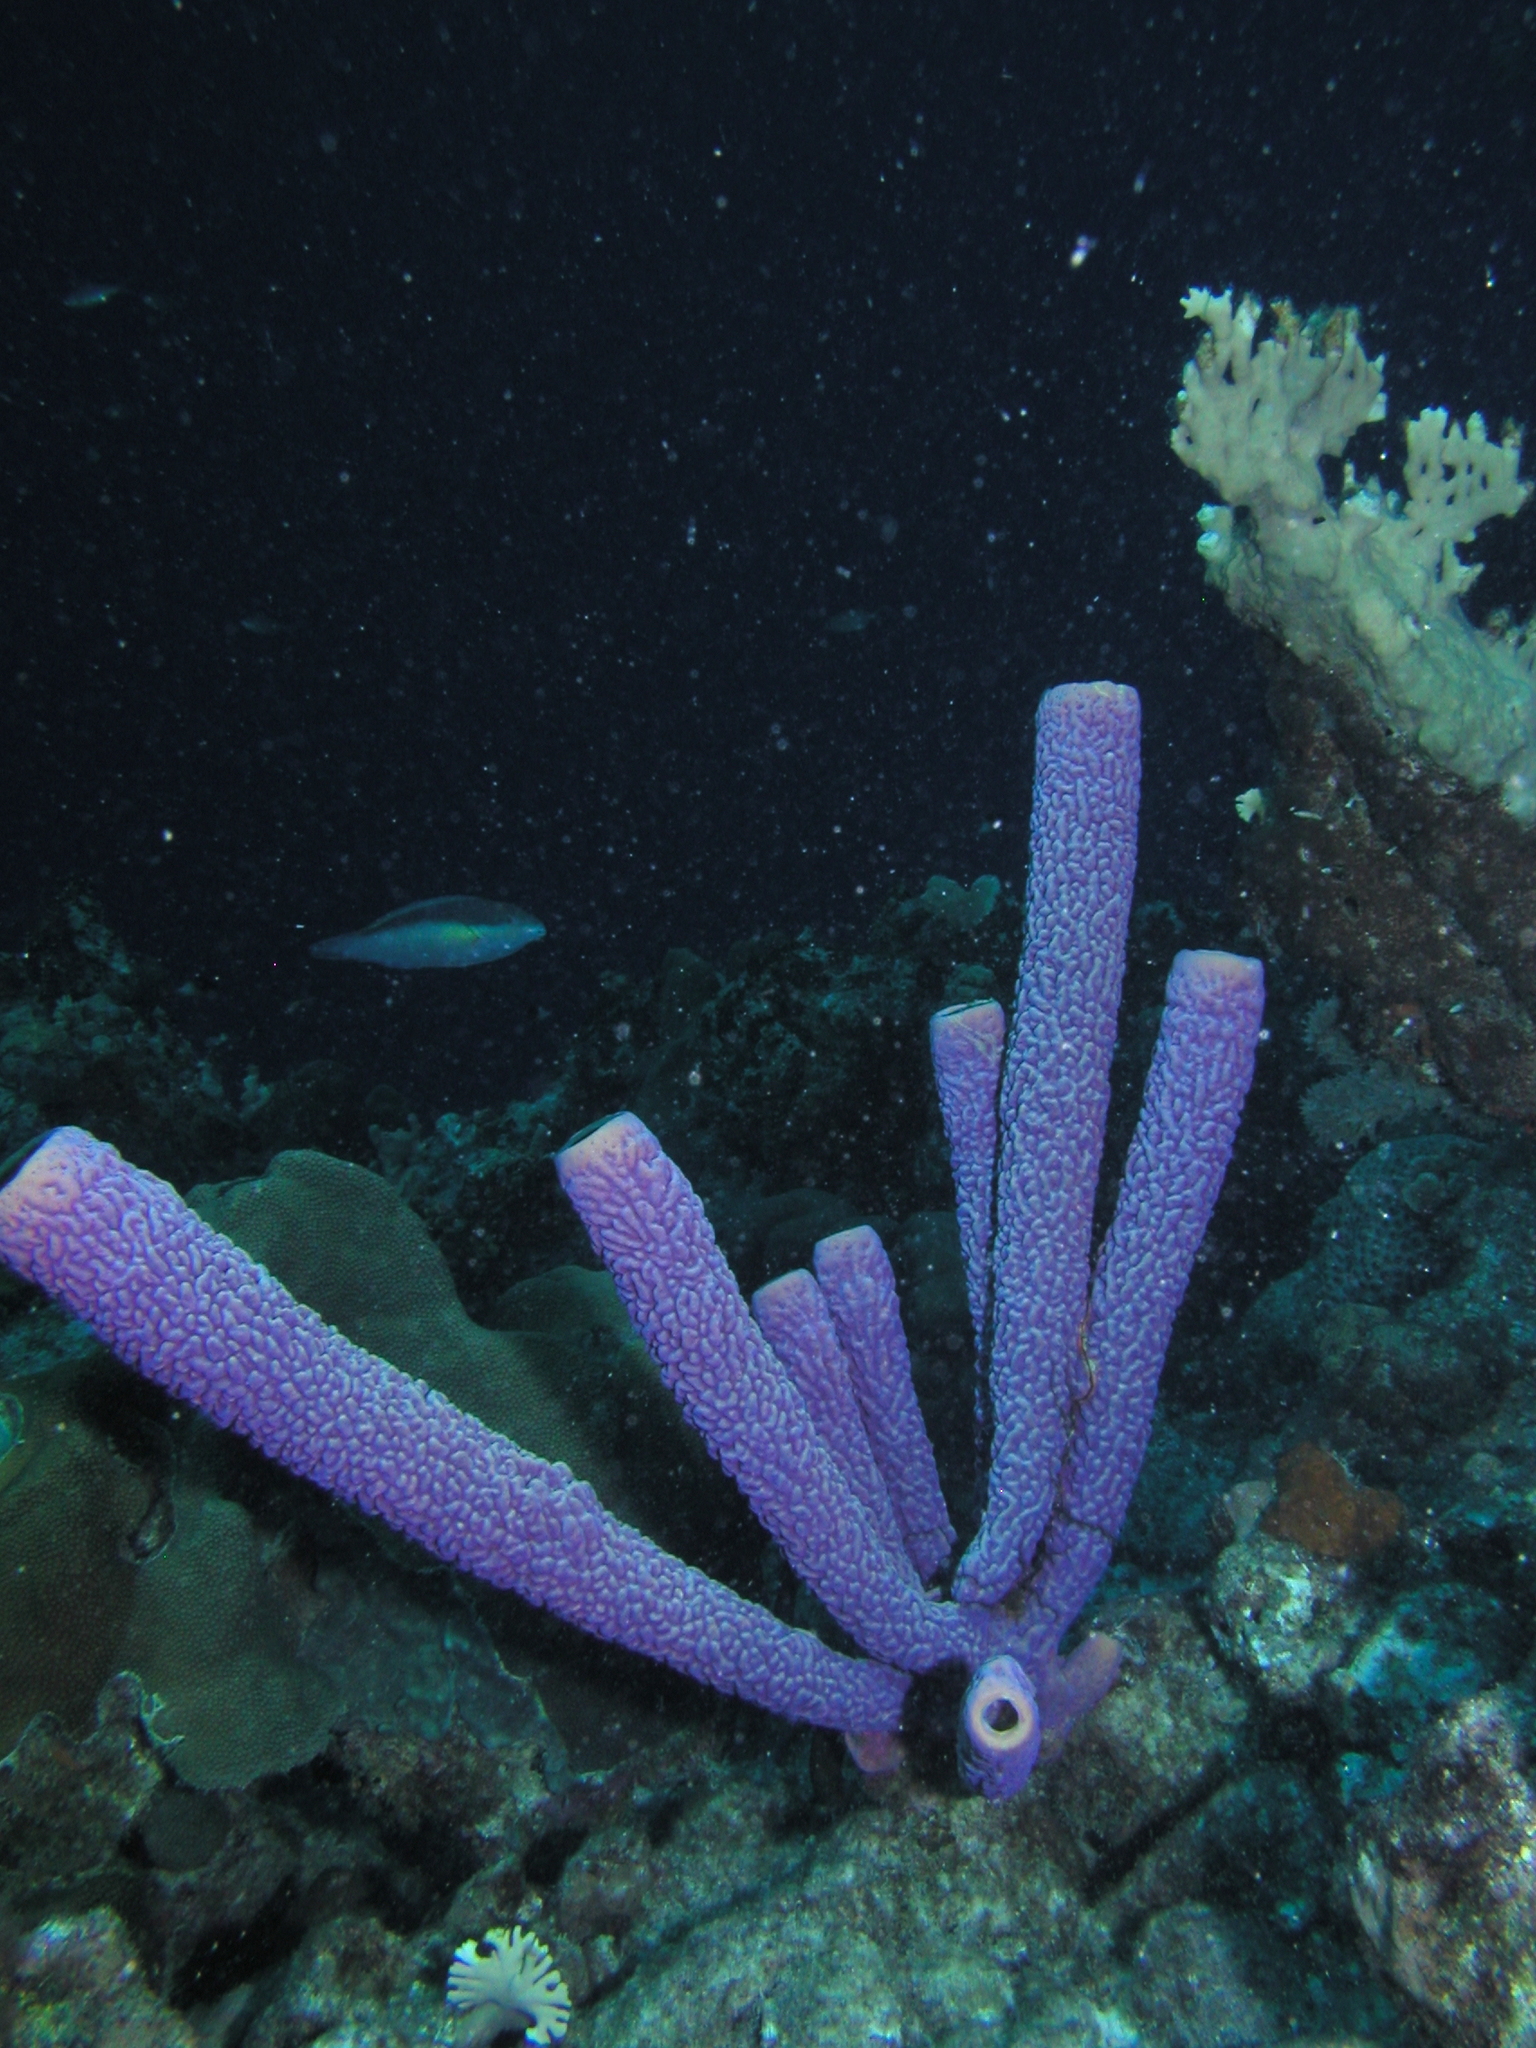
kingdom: Animalia
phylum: Porifera
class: Demospongiae
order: Verongiida
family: Aplysinidae
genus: Aplysina
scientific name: Aplysina archeri
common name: Stove-pipe sponge
